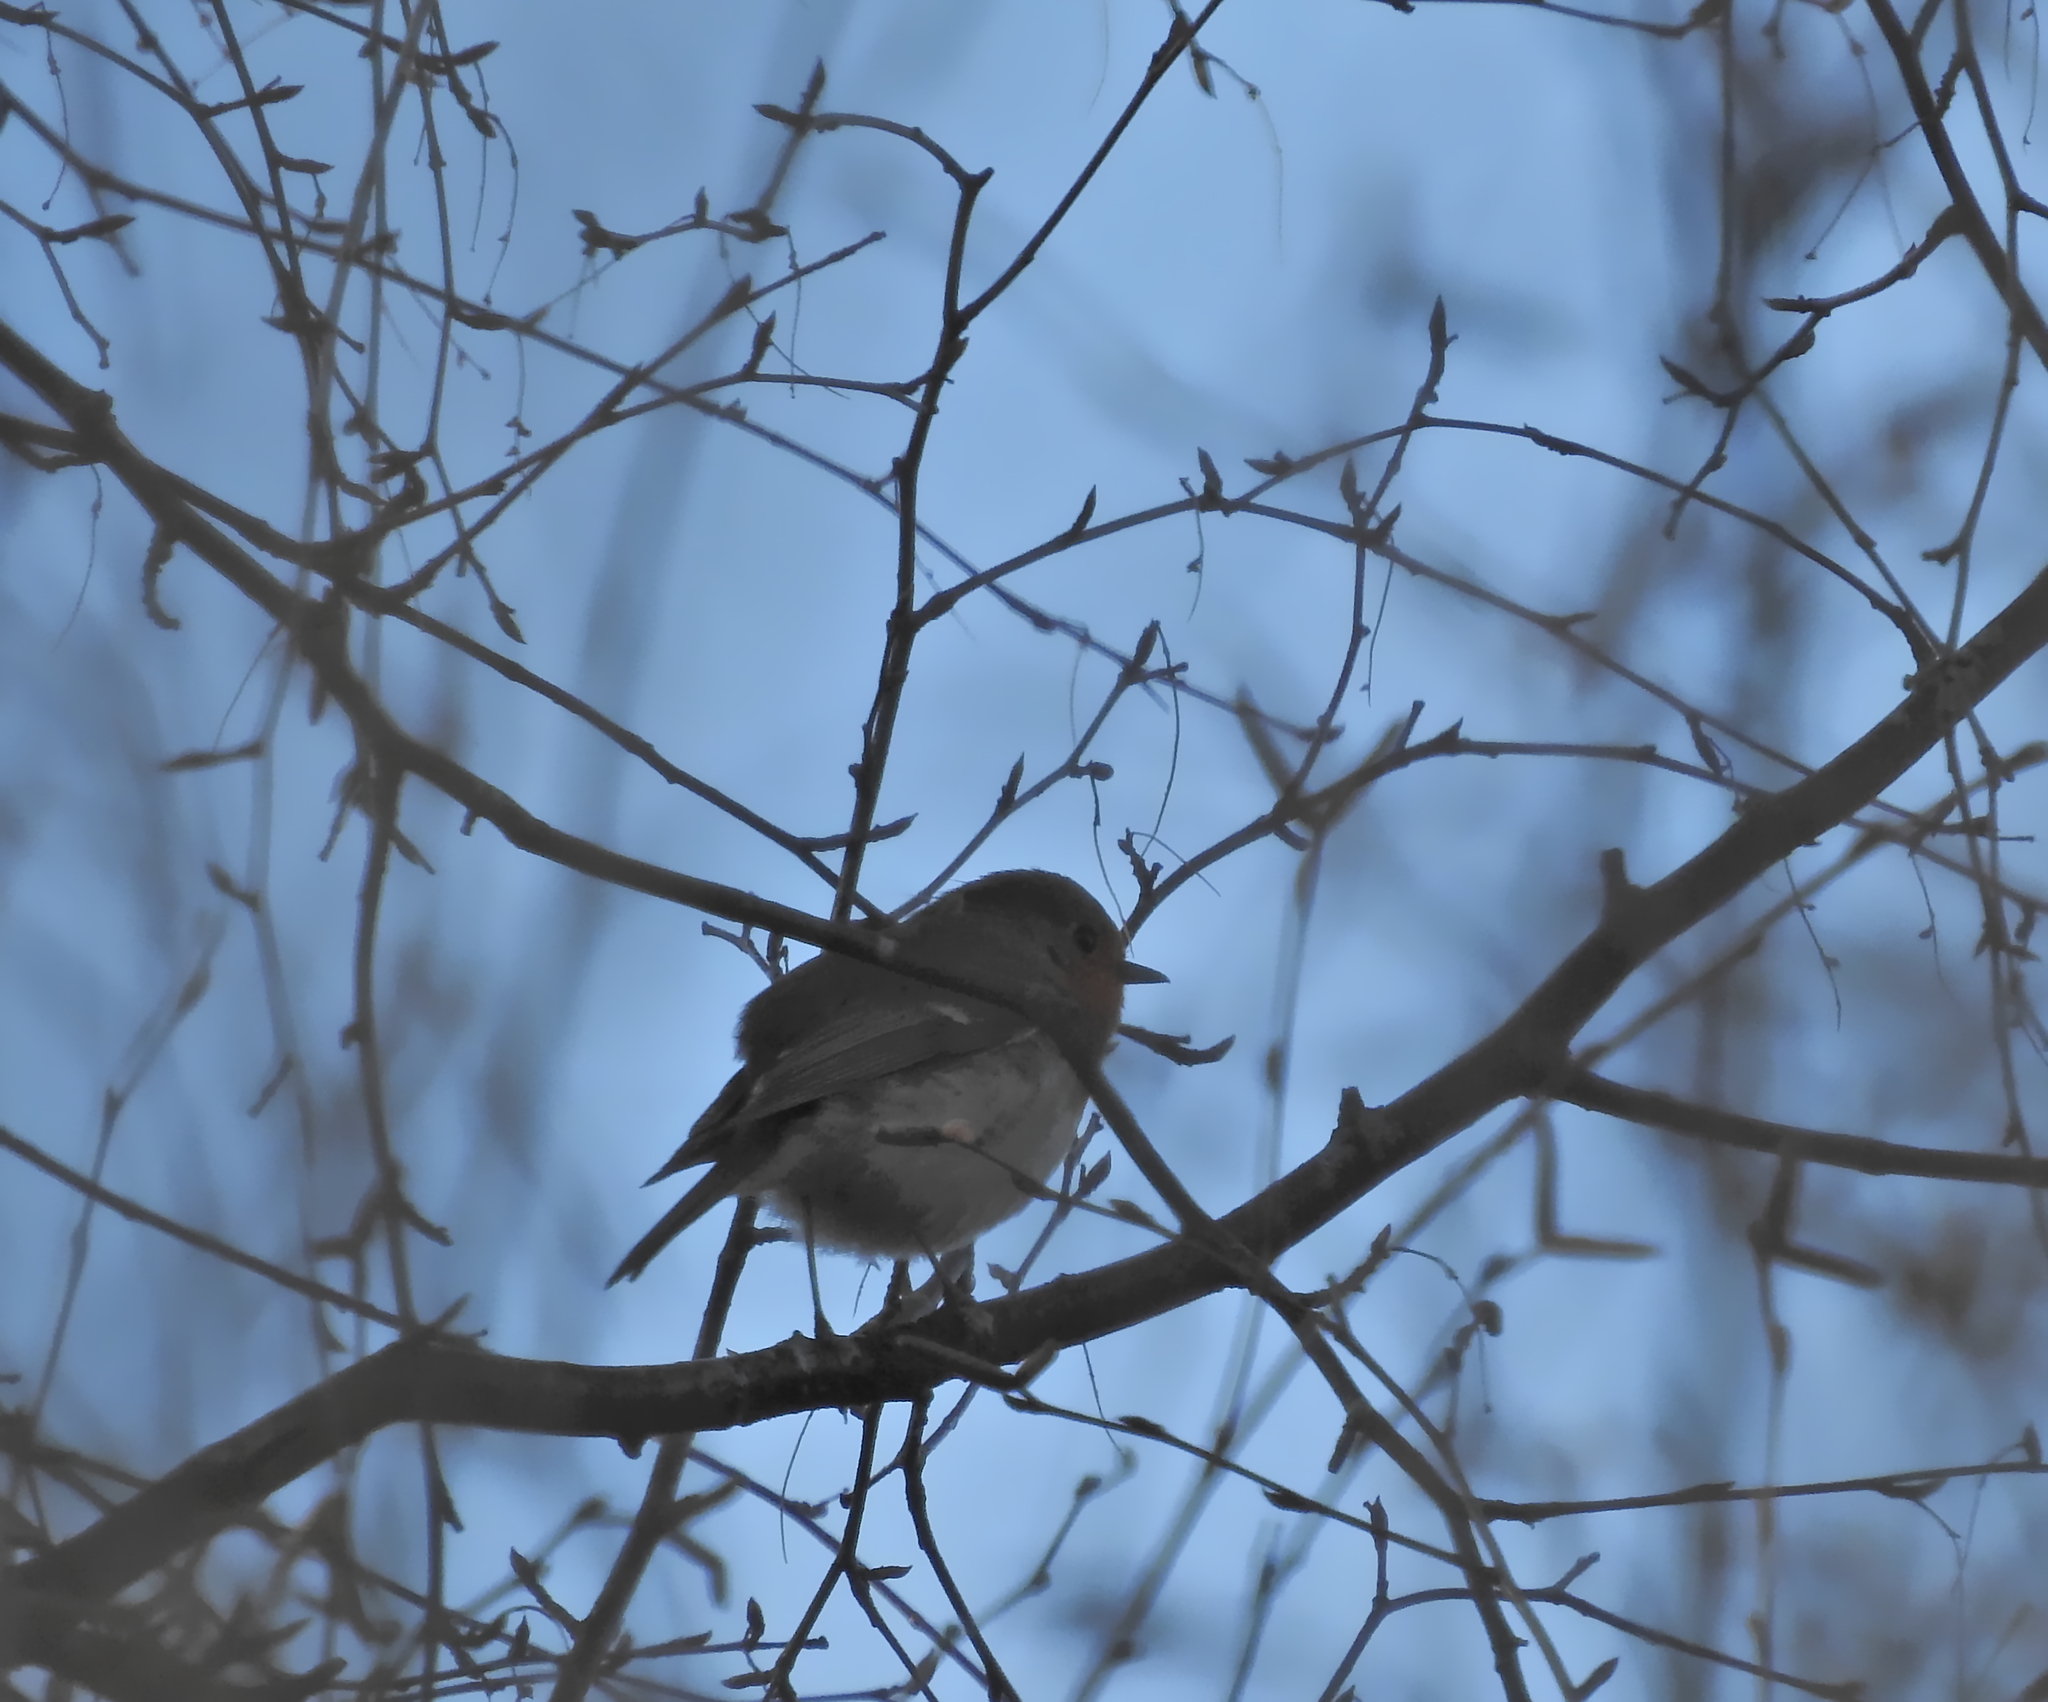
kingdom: Animalia
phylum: Chordata
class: Aves
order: Passeriformes
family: Muscicapidae
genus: Erithacus
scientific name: Erithacus rubecula
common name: European robin
